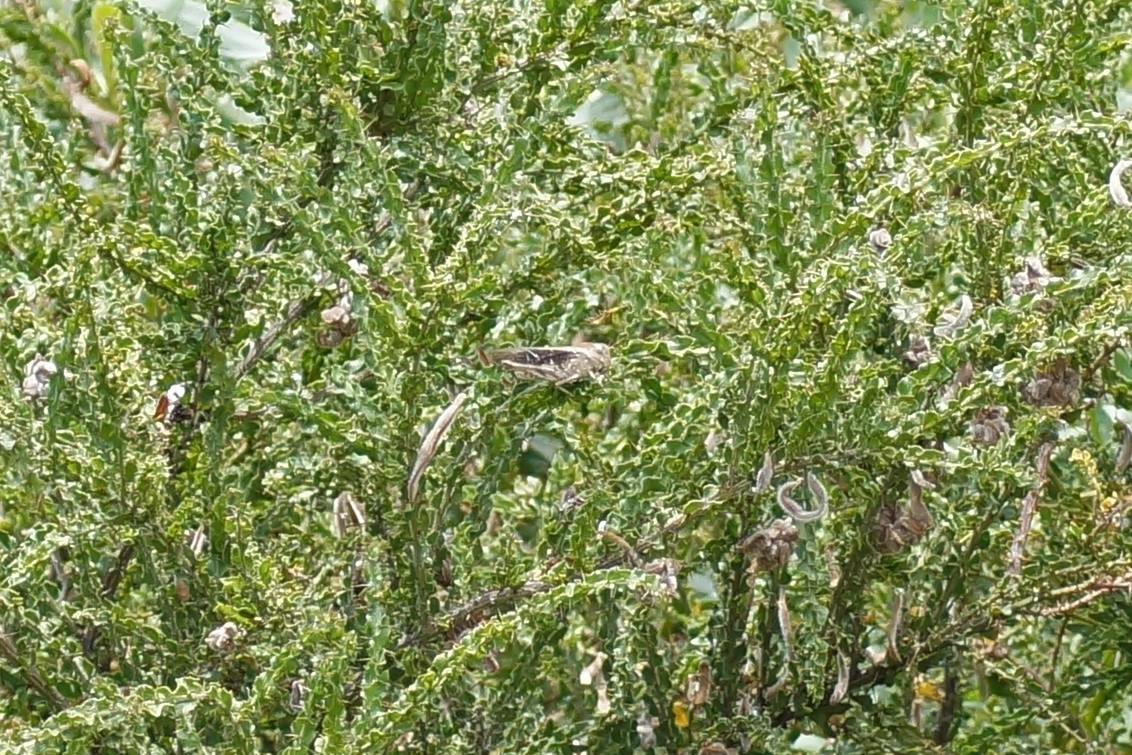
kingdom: Animalia
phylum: Arthropoda
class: Insecta
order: Orthoptera
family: Acrididae
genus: Gastrimargus
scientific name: Gastrimargus musicus
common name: Yellow-winged locust
